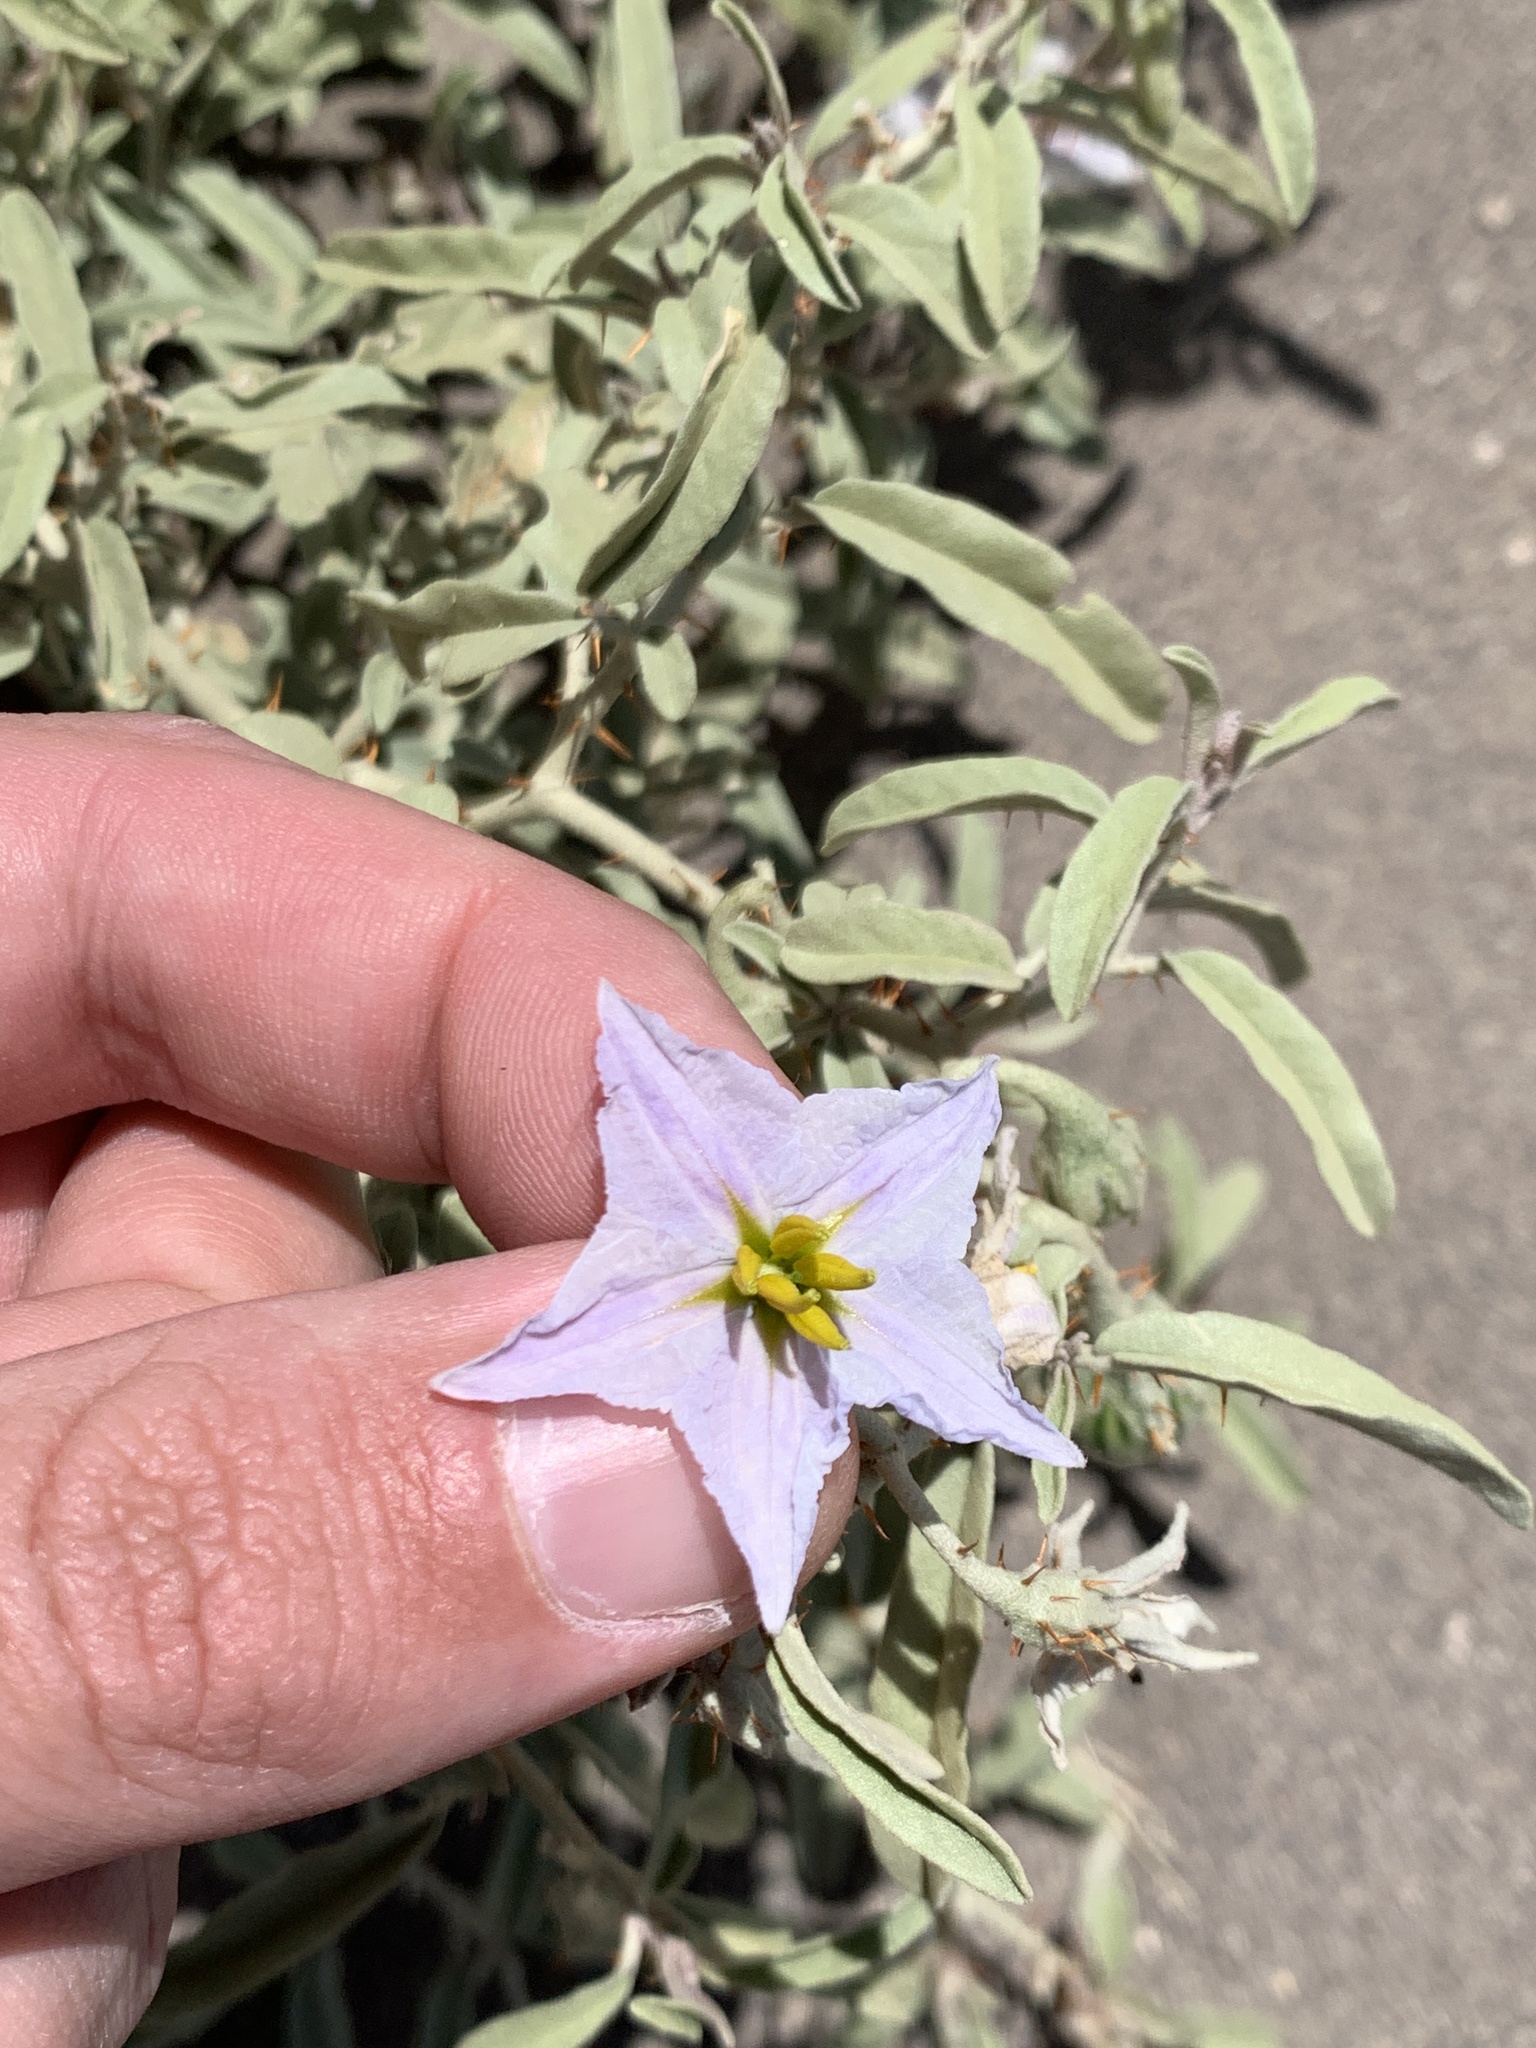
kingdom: Plantae
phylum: Tracheophyta
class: Magnoliopsida
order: Solanales
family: Solanaceae
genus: Solanum
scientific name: Solanum elaeagnifolium
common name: Silverleaf nightshade
